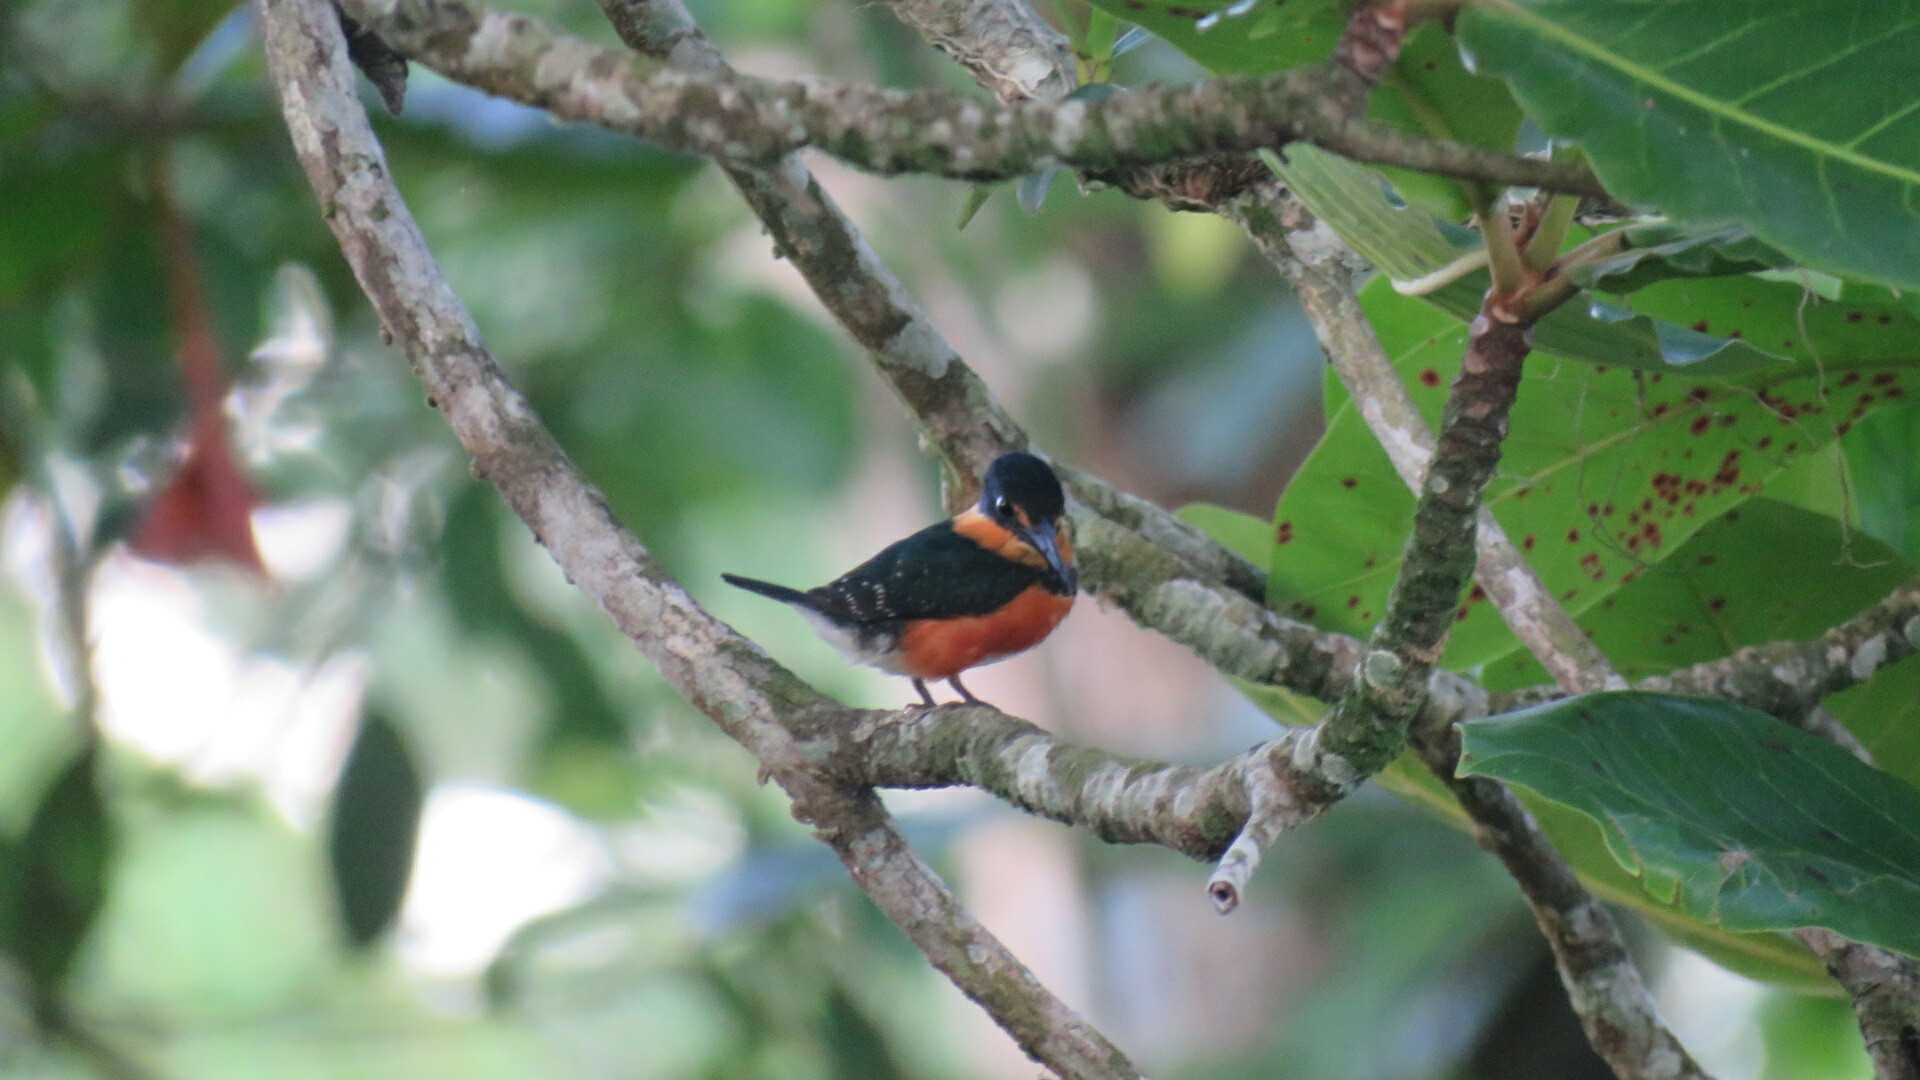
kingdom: Animalia
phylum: Chordata
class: Aves
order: Coraciiformes
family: Alcedinidae
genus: Chloroceryle
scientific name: Chloroceryle aenea
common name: American pygmy kingfisher
